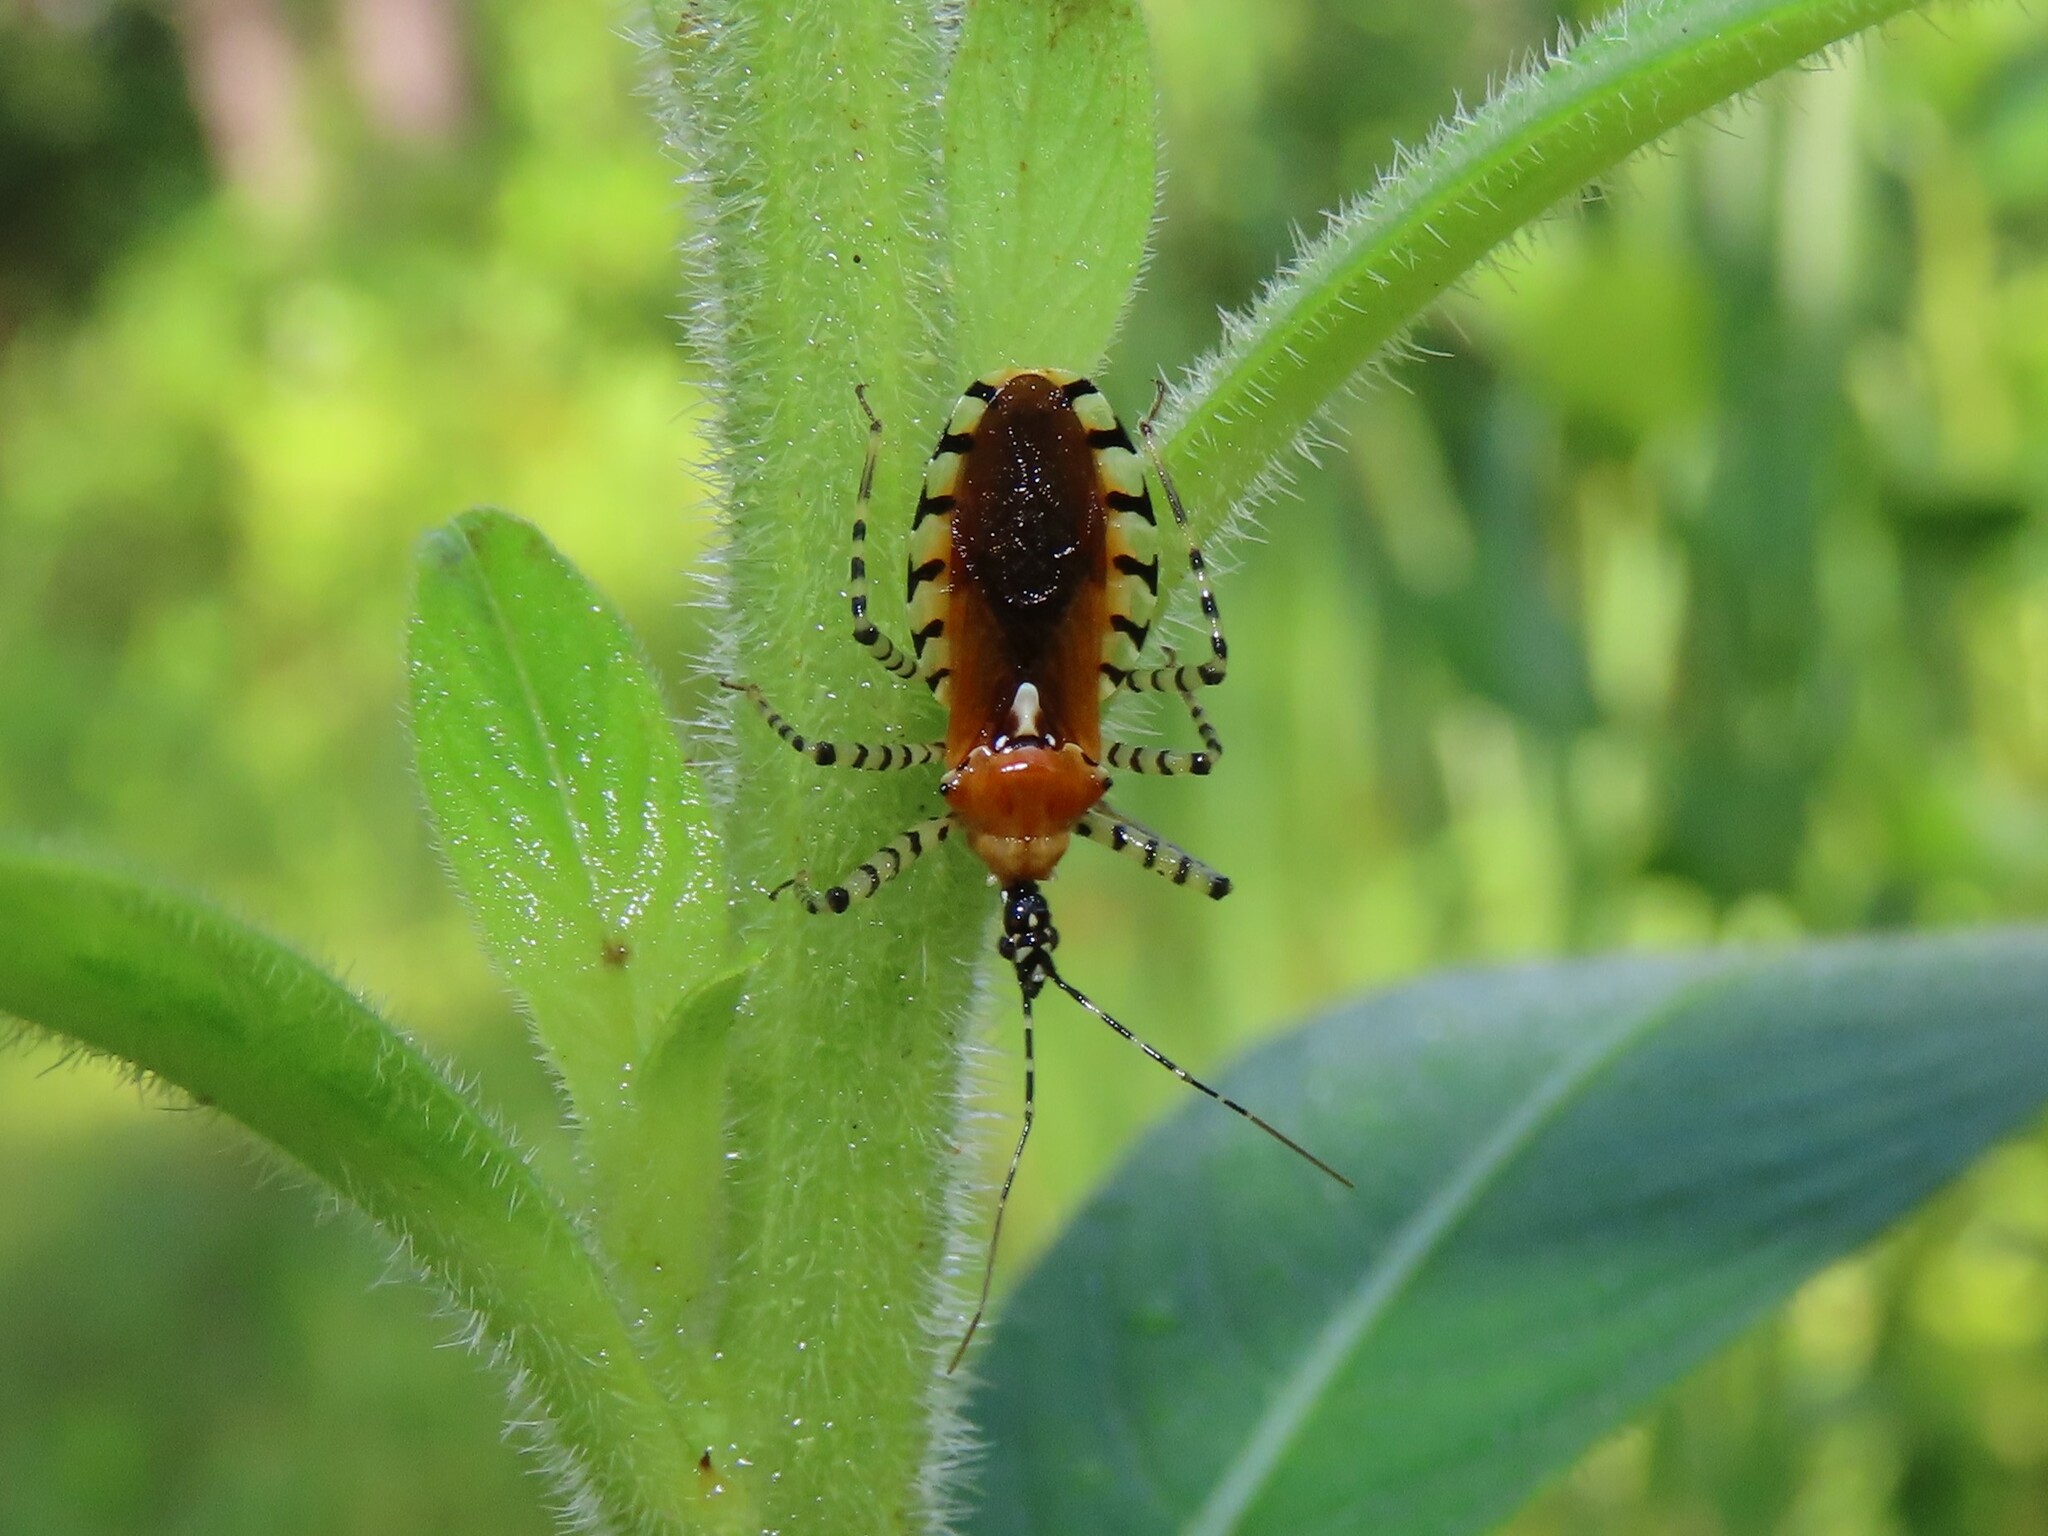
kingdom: Animalia
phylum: Arthropoda
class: Insecta
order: Hemiptera
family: Reduviidae
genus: Pselliopus
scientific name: Pselliopus cinctus
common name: Ringed assassin bug
